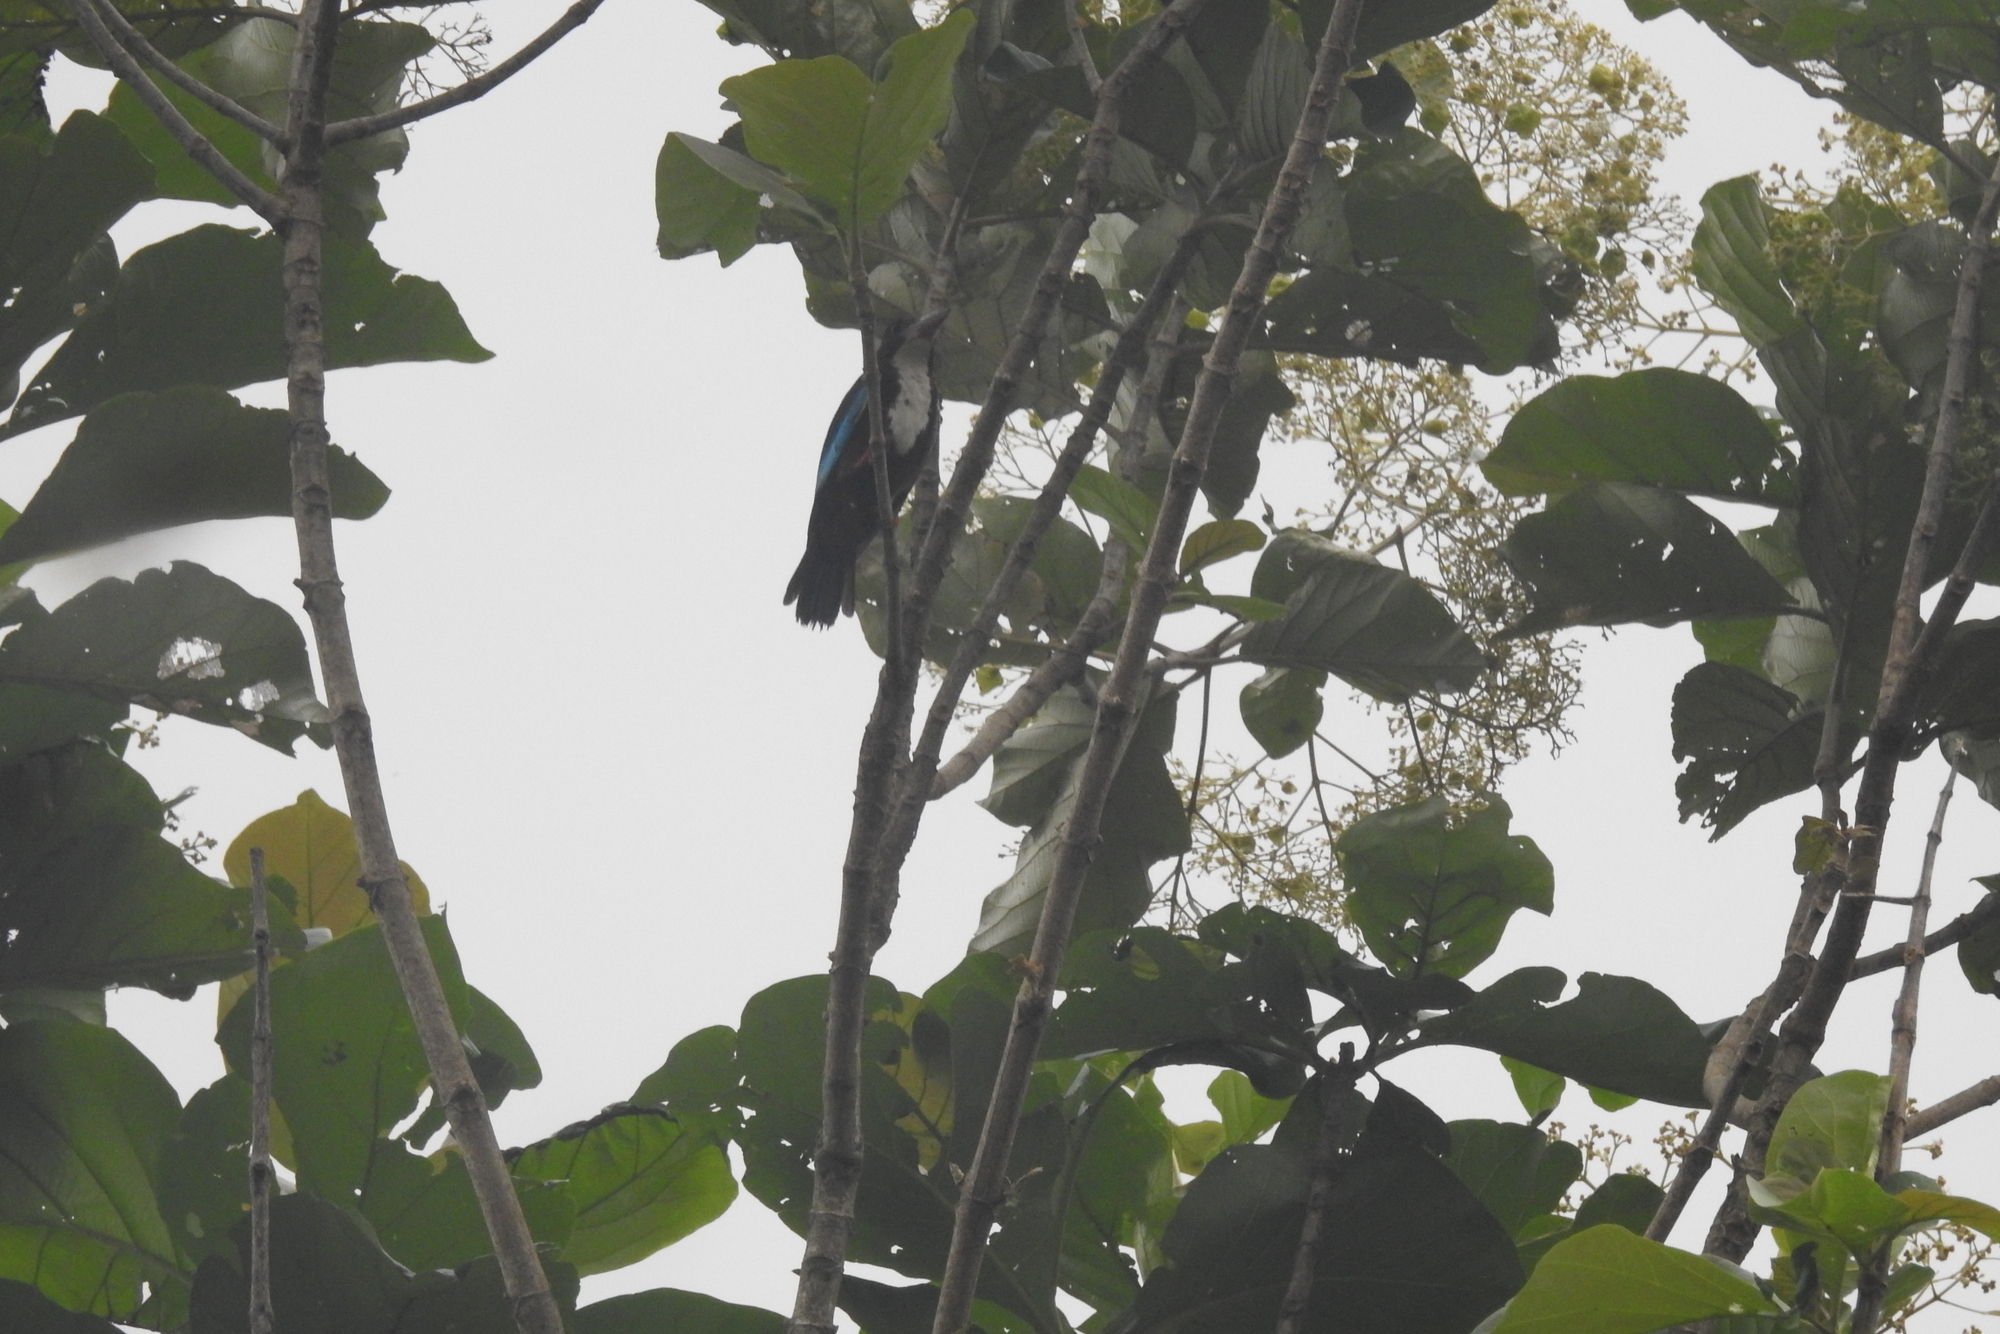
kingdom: Animalia
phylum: Chordata
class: Aves
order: Coraciiformes
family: Alcedinidae
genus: Halcyon
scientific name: Halcyon smyrnensis
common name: White-throated kingfisher
